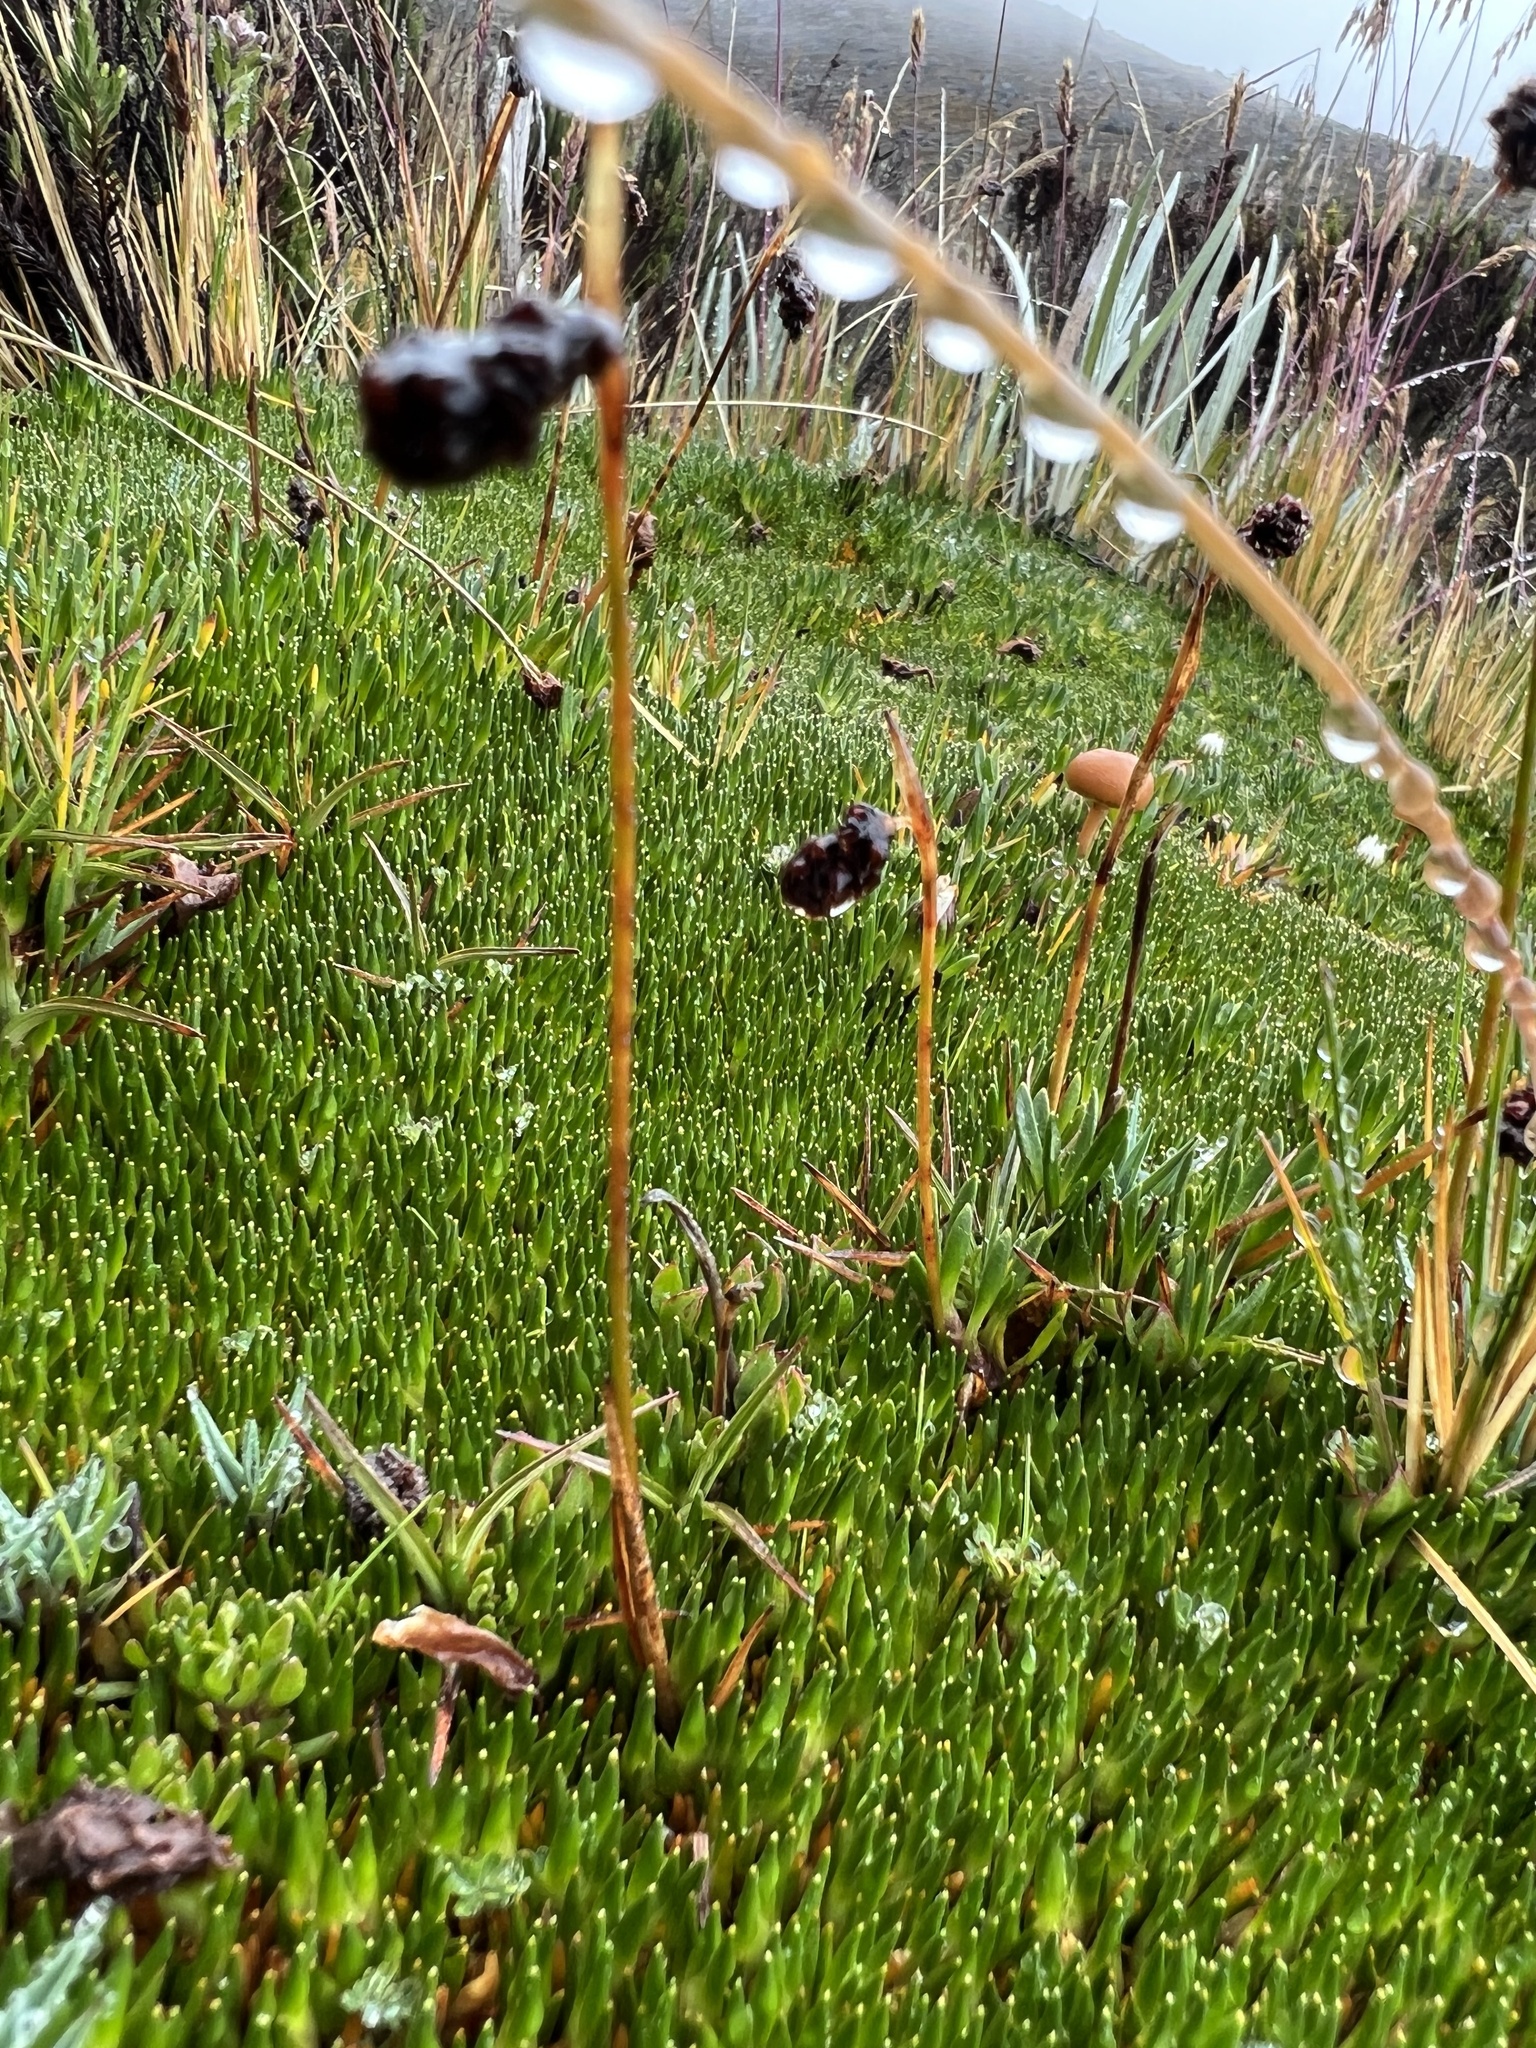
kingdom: Plantae
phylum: Tracheophyta
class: Liliopsida
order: Poales
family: Juncaceae
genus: Distichia
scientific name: Distichia muscoides
